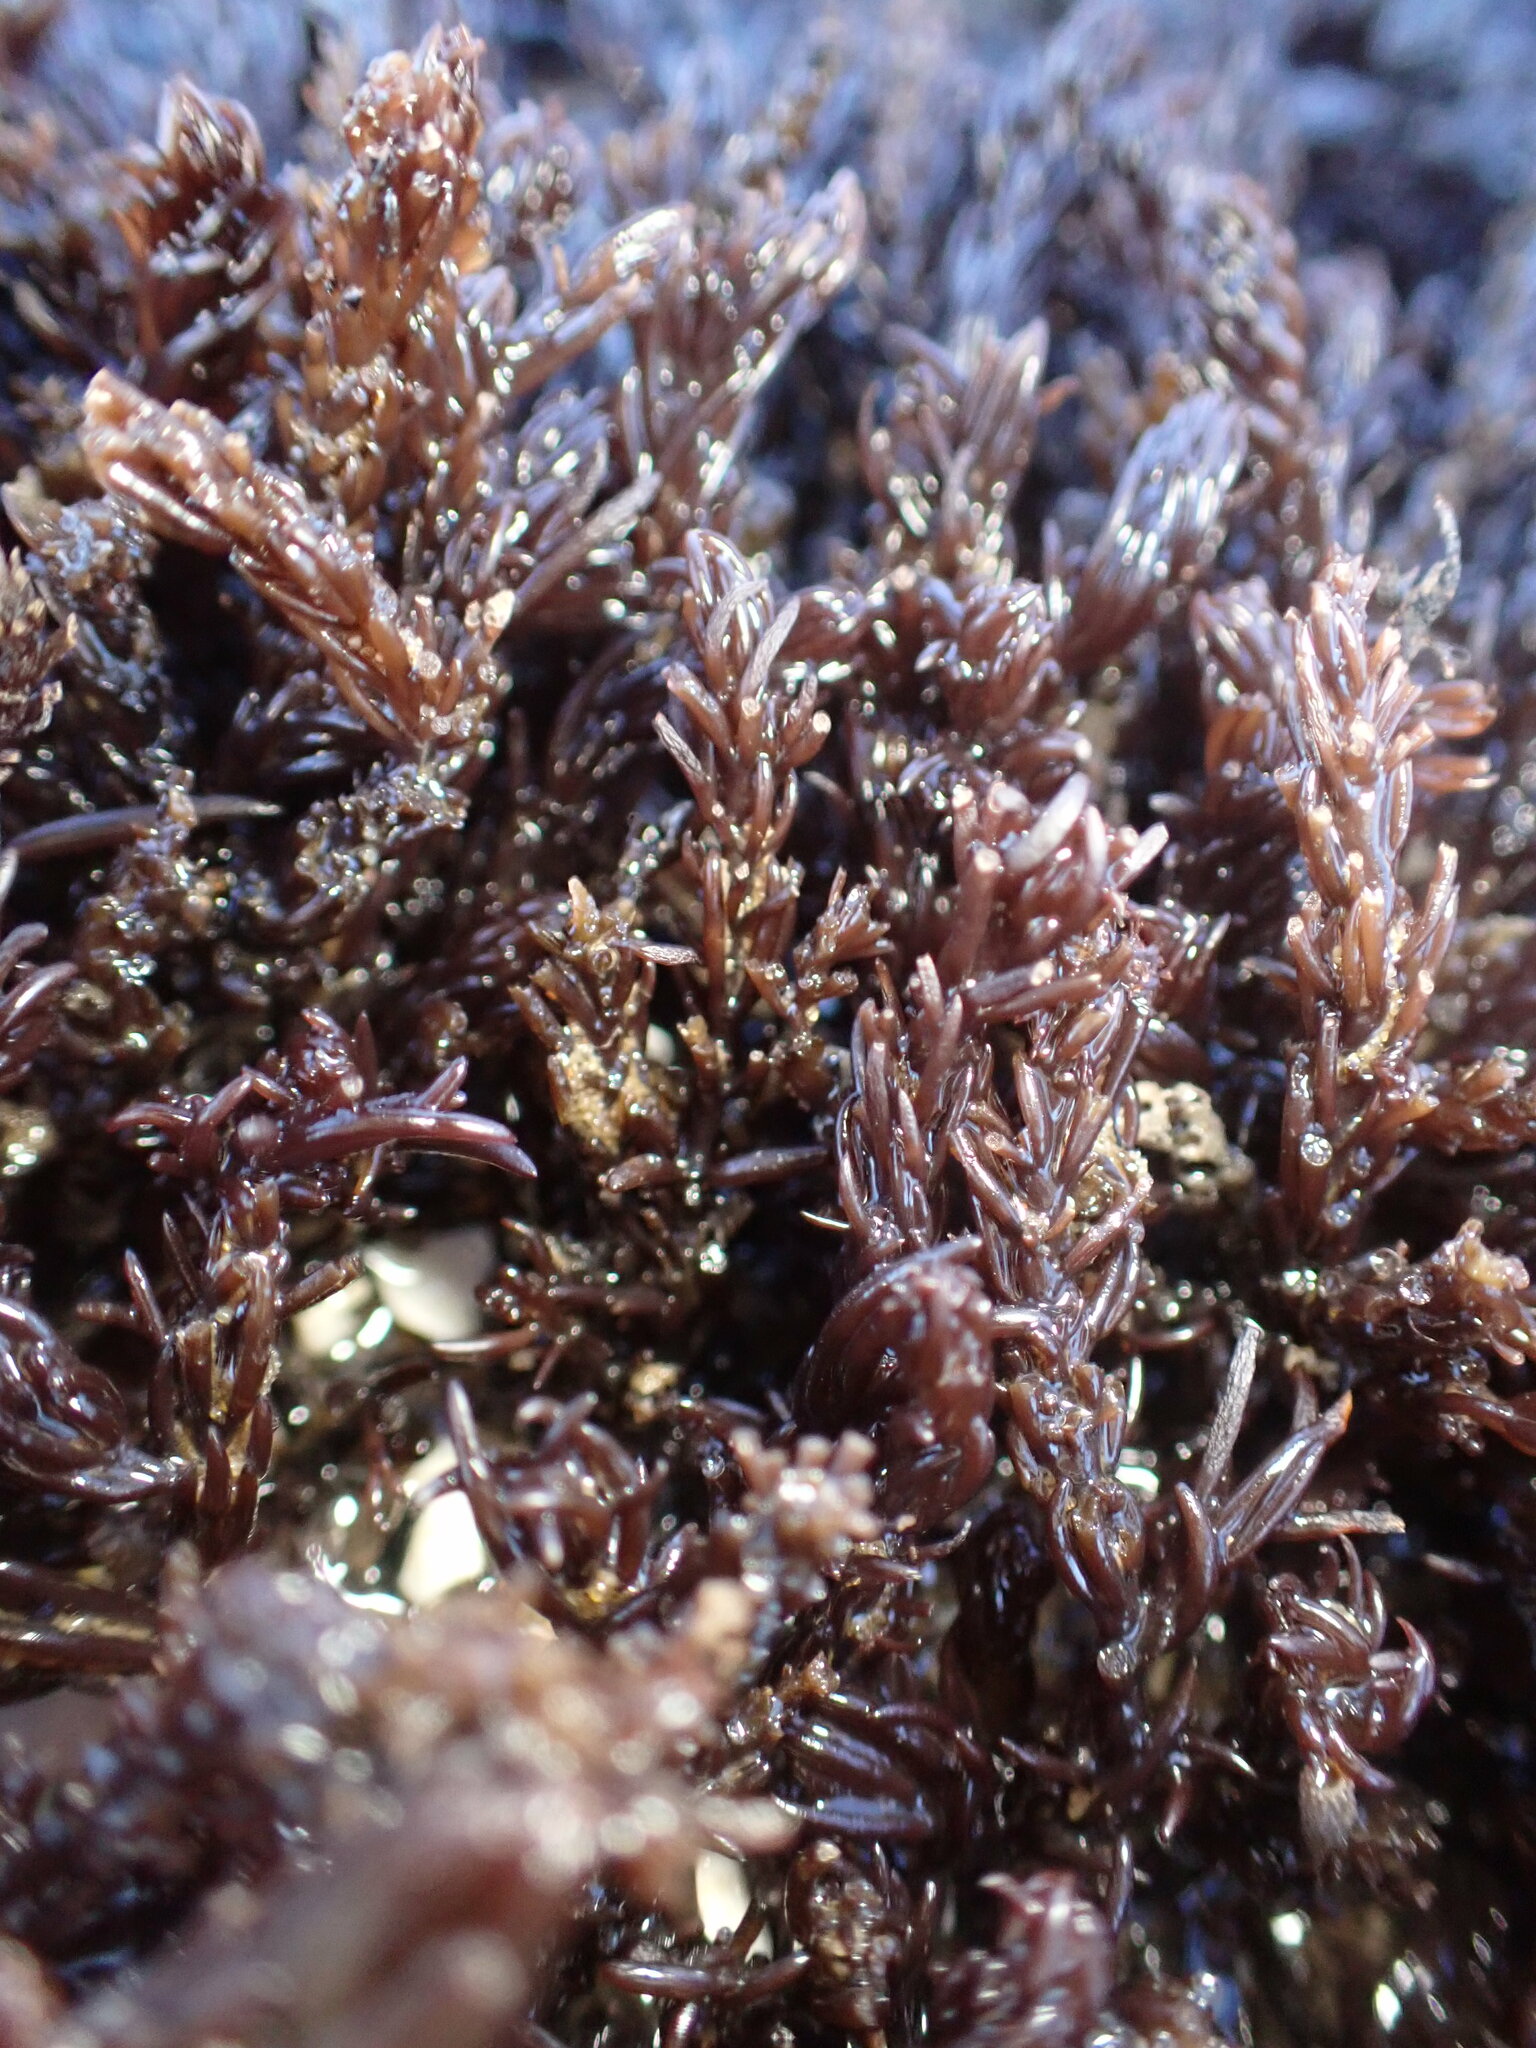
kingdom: Plantae
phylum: Rhodophyta
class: Florideophyceae
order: Ceramiales
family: Rhodomelaceae
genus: Neorhodomela
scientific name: Neorhodomela larix
